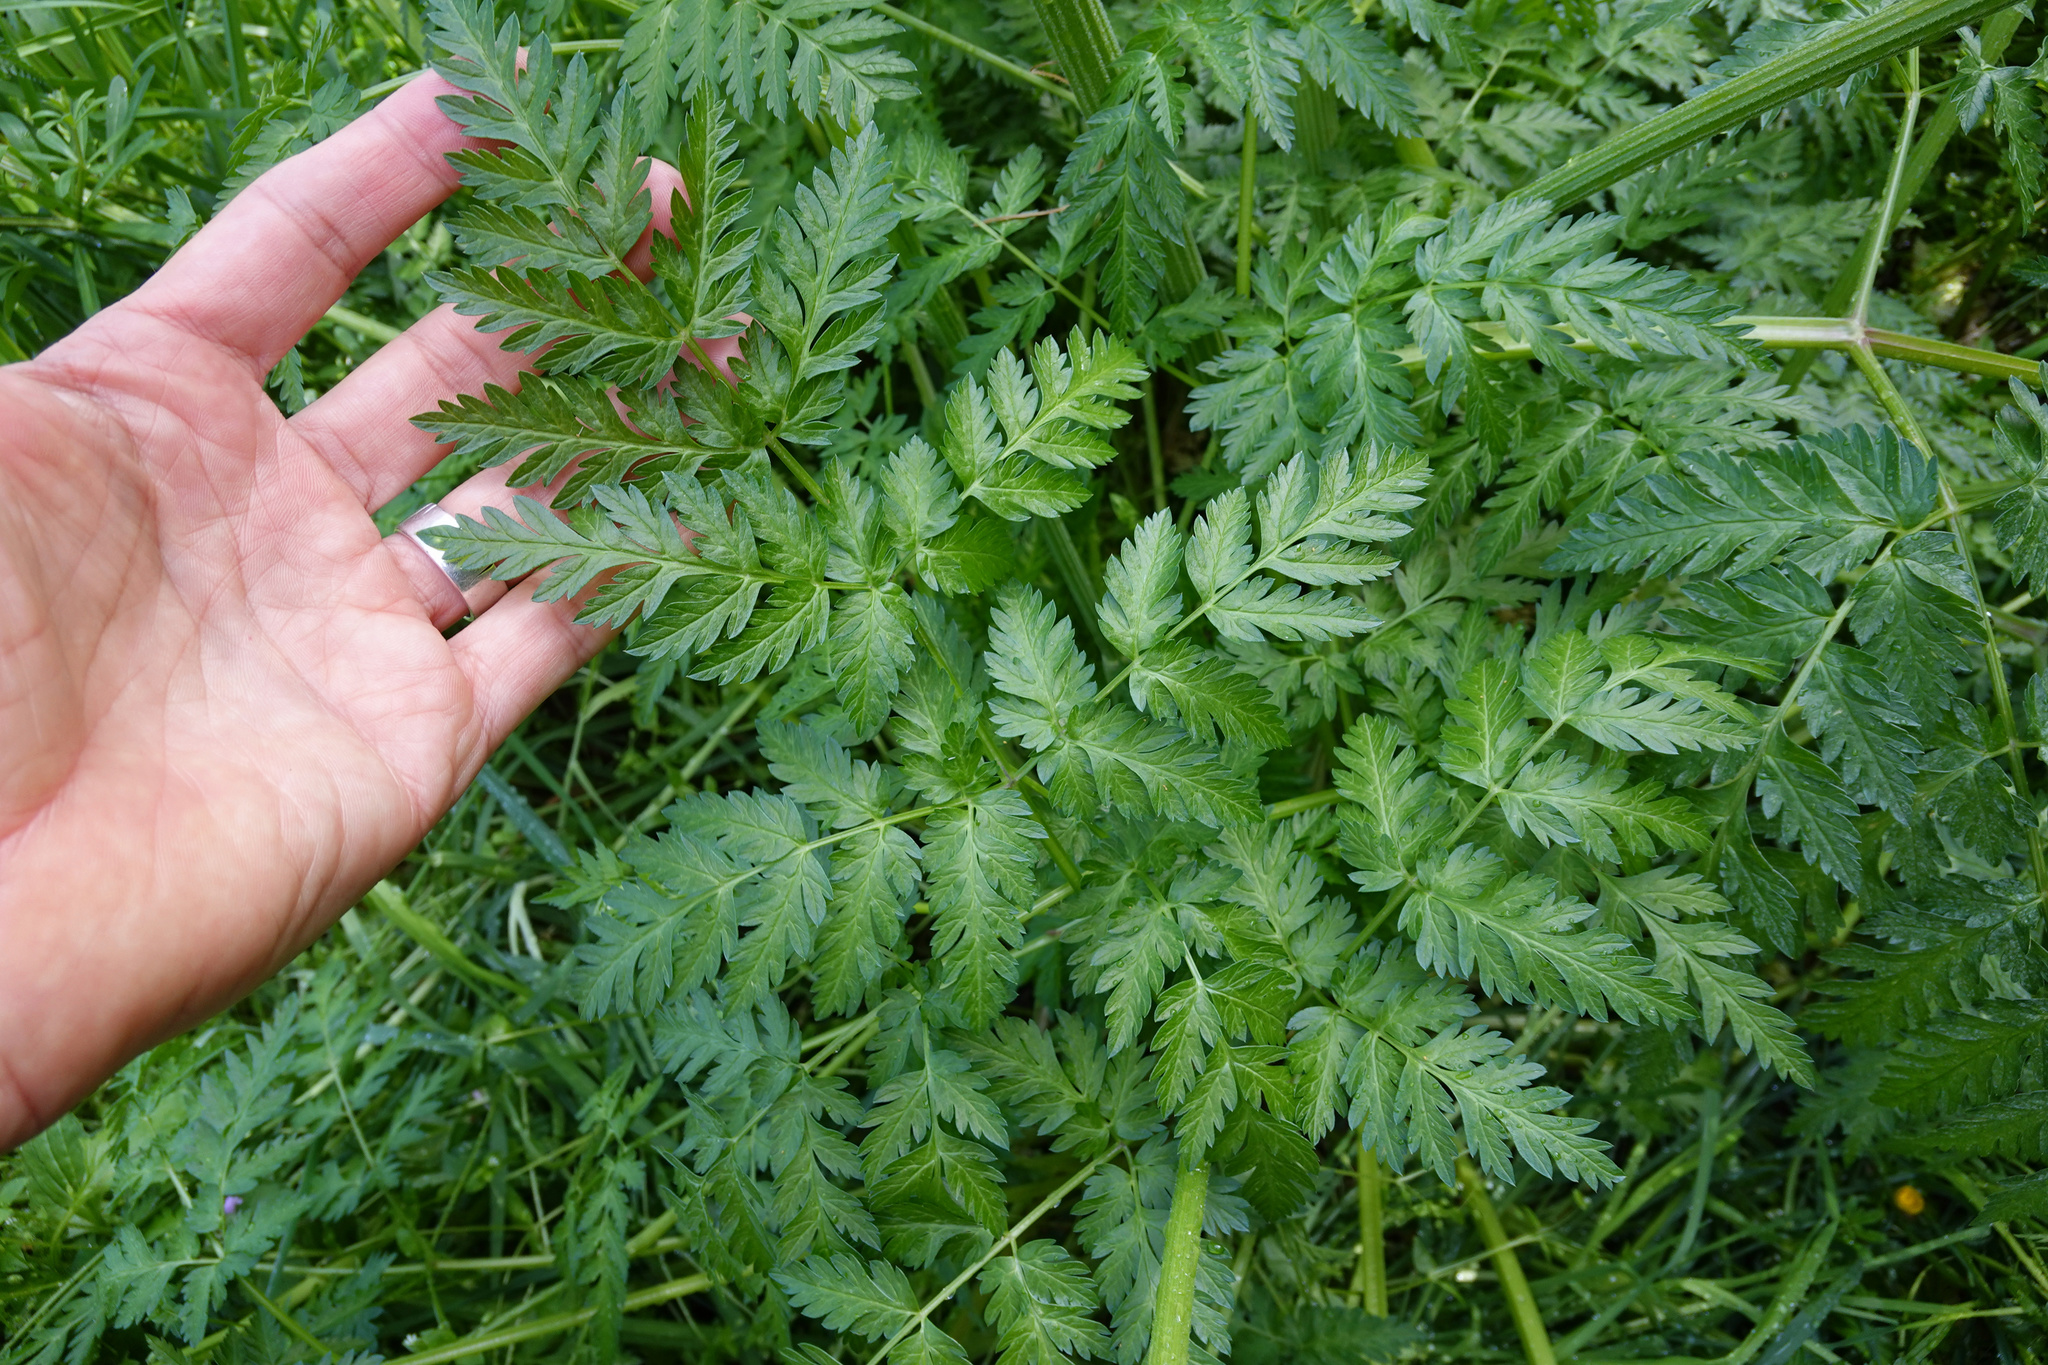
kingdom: Plantae
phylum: Tracheophyta
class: Magnoliopsida
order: Apiales
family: Apiaceae
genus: Anthriscus
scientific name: Anthriscus sylvestris
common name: Cow parsley
